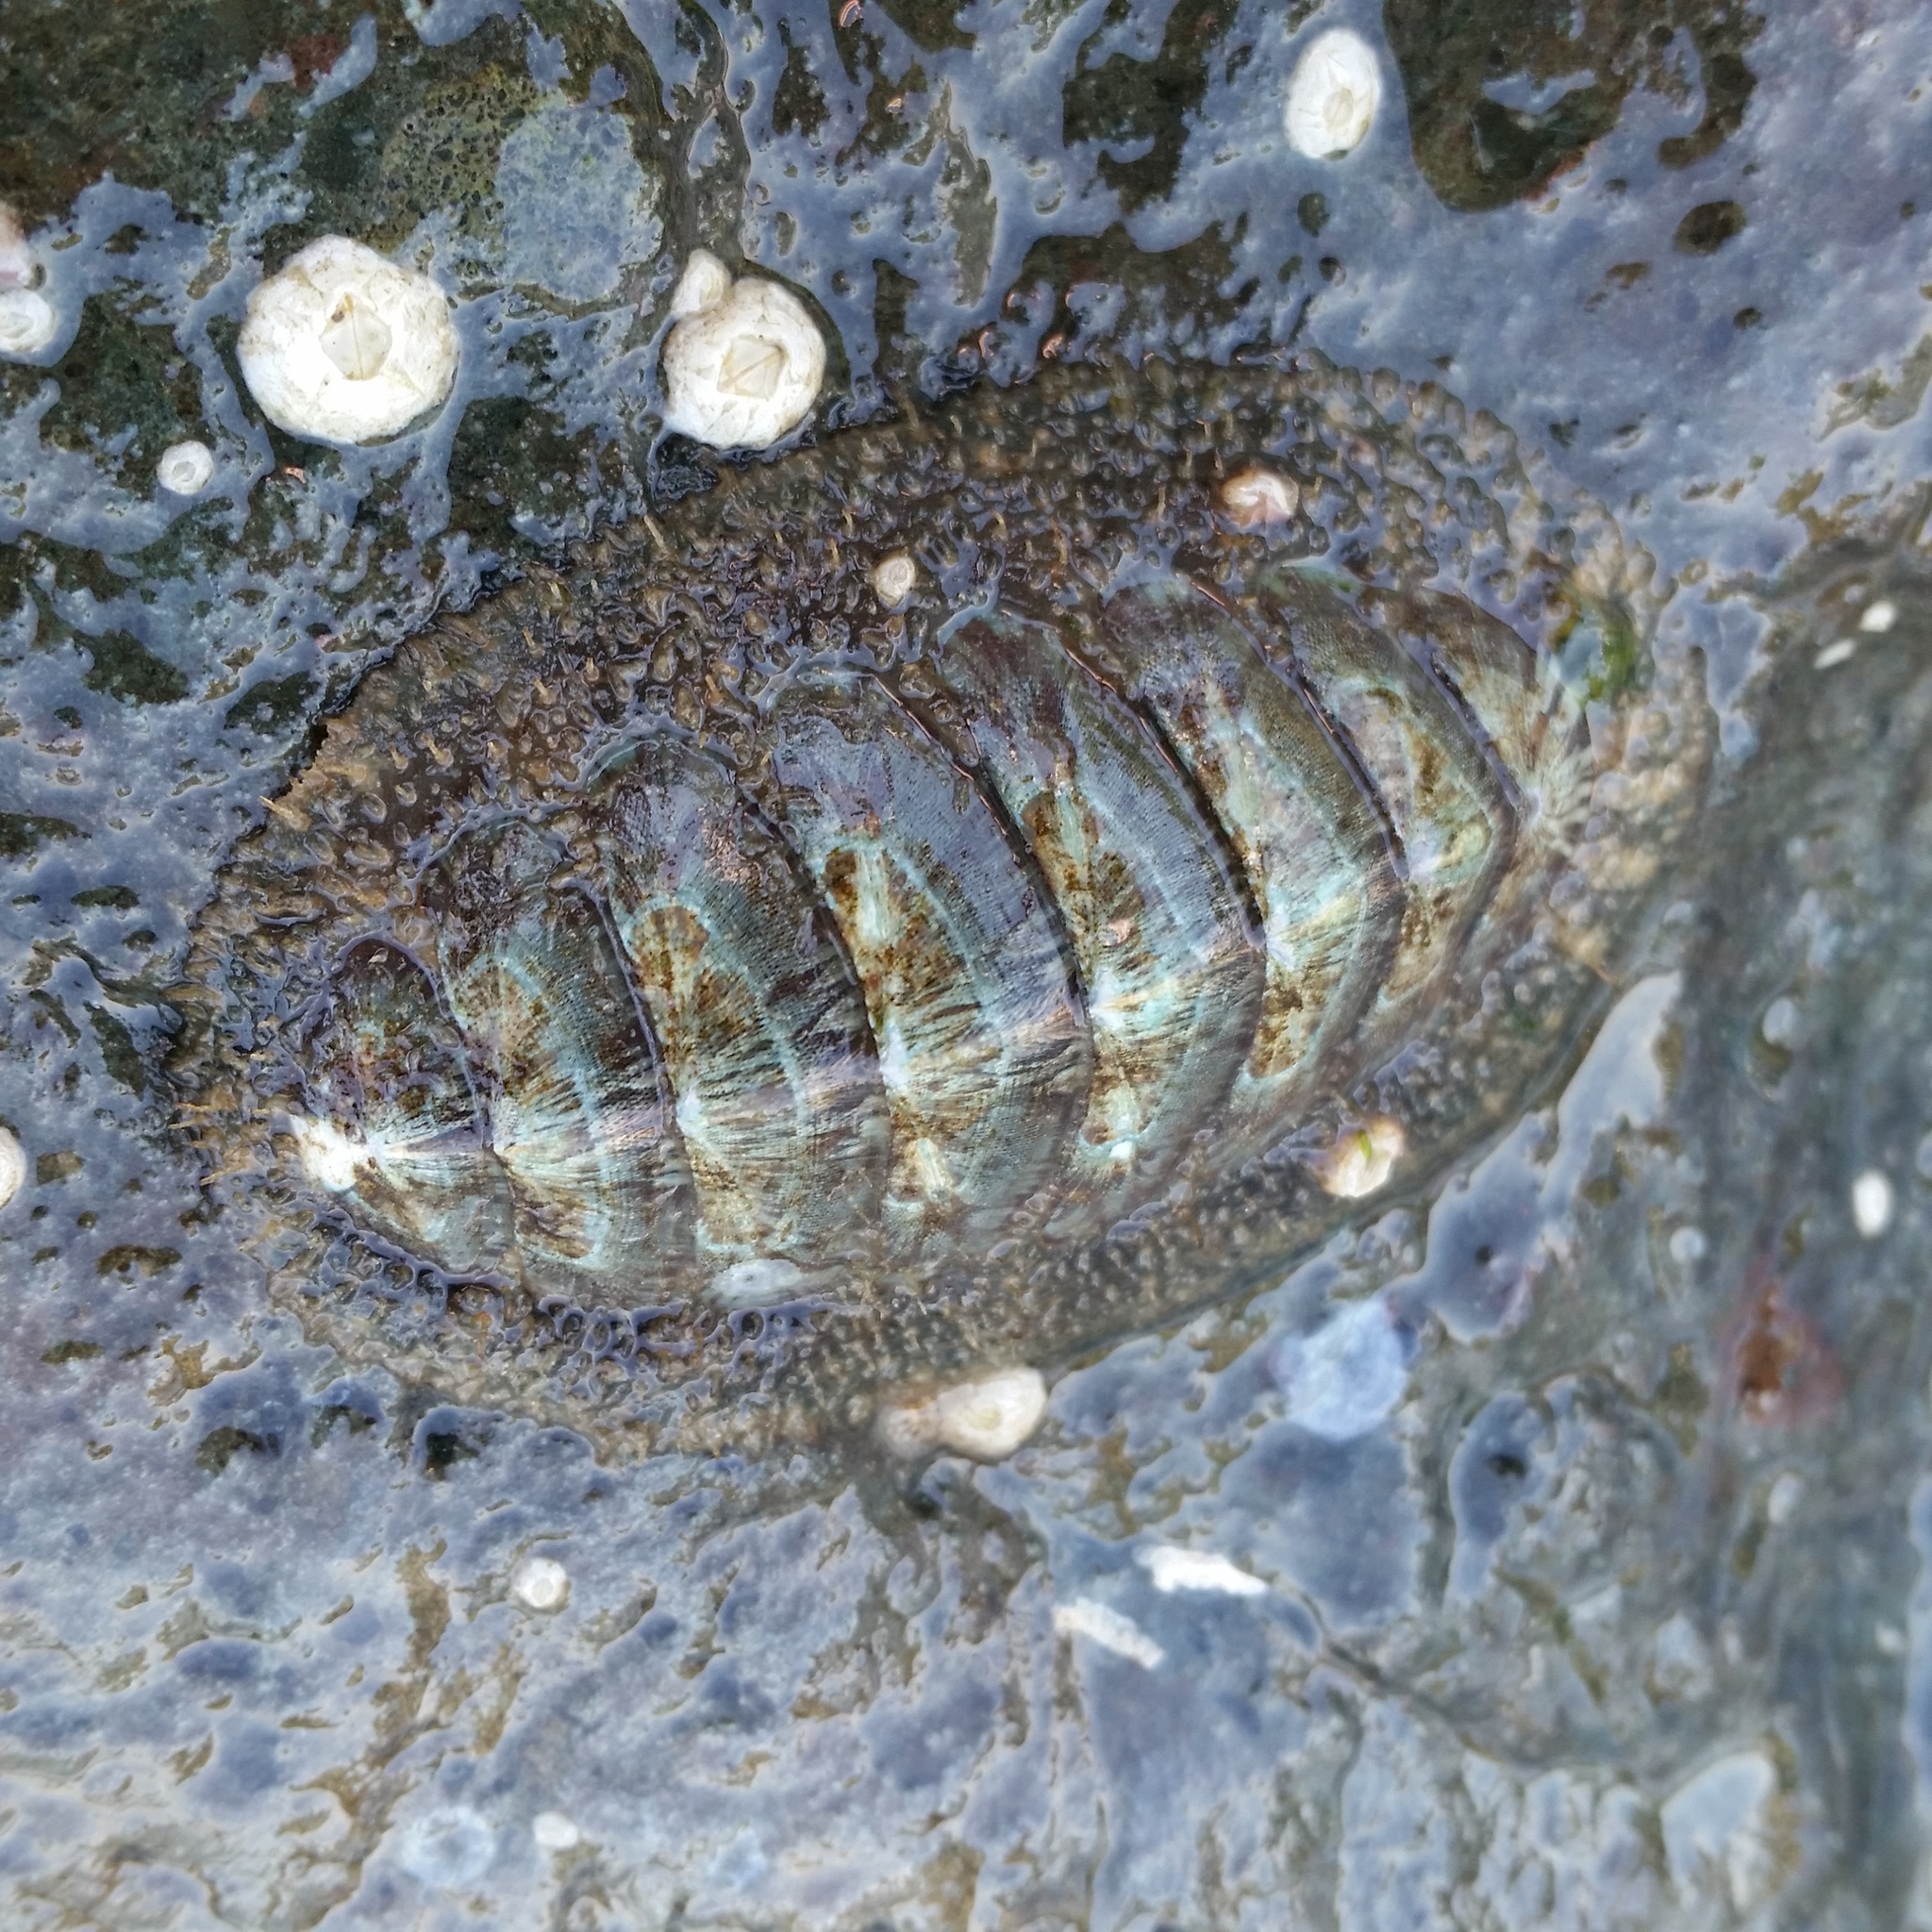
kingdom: Animalia
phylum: Mollusca
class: Polyplacophora
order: Chitonida
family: Mopaliidae
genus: Mopalia
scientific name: Mopalia lignosa
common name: Woody chiton
